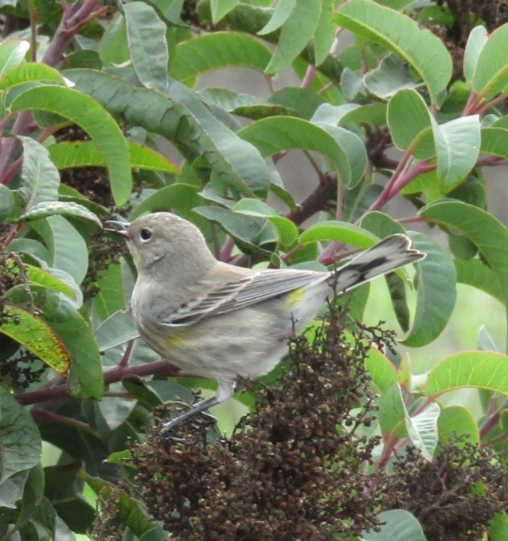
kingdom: Animalia
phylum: Chordata
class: Aves
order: Passeriformes
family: Parulidae
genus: Setophaga
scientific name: Setophaga coronata
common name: Myrtle warbler
